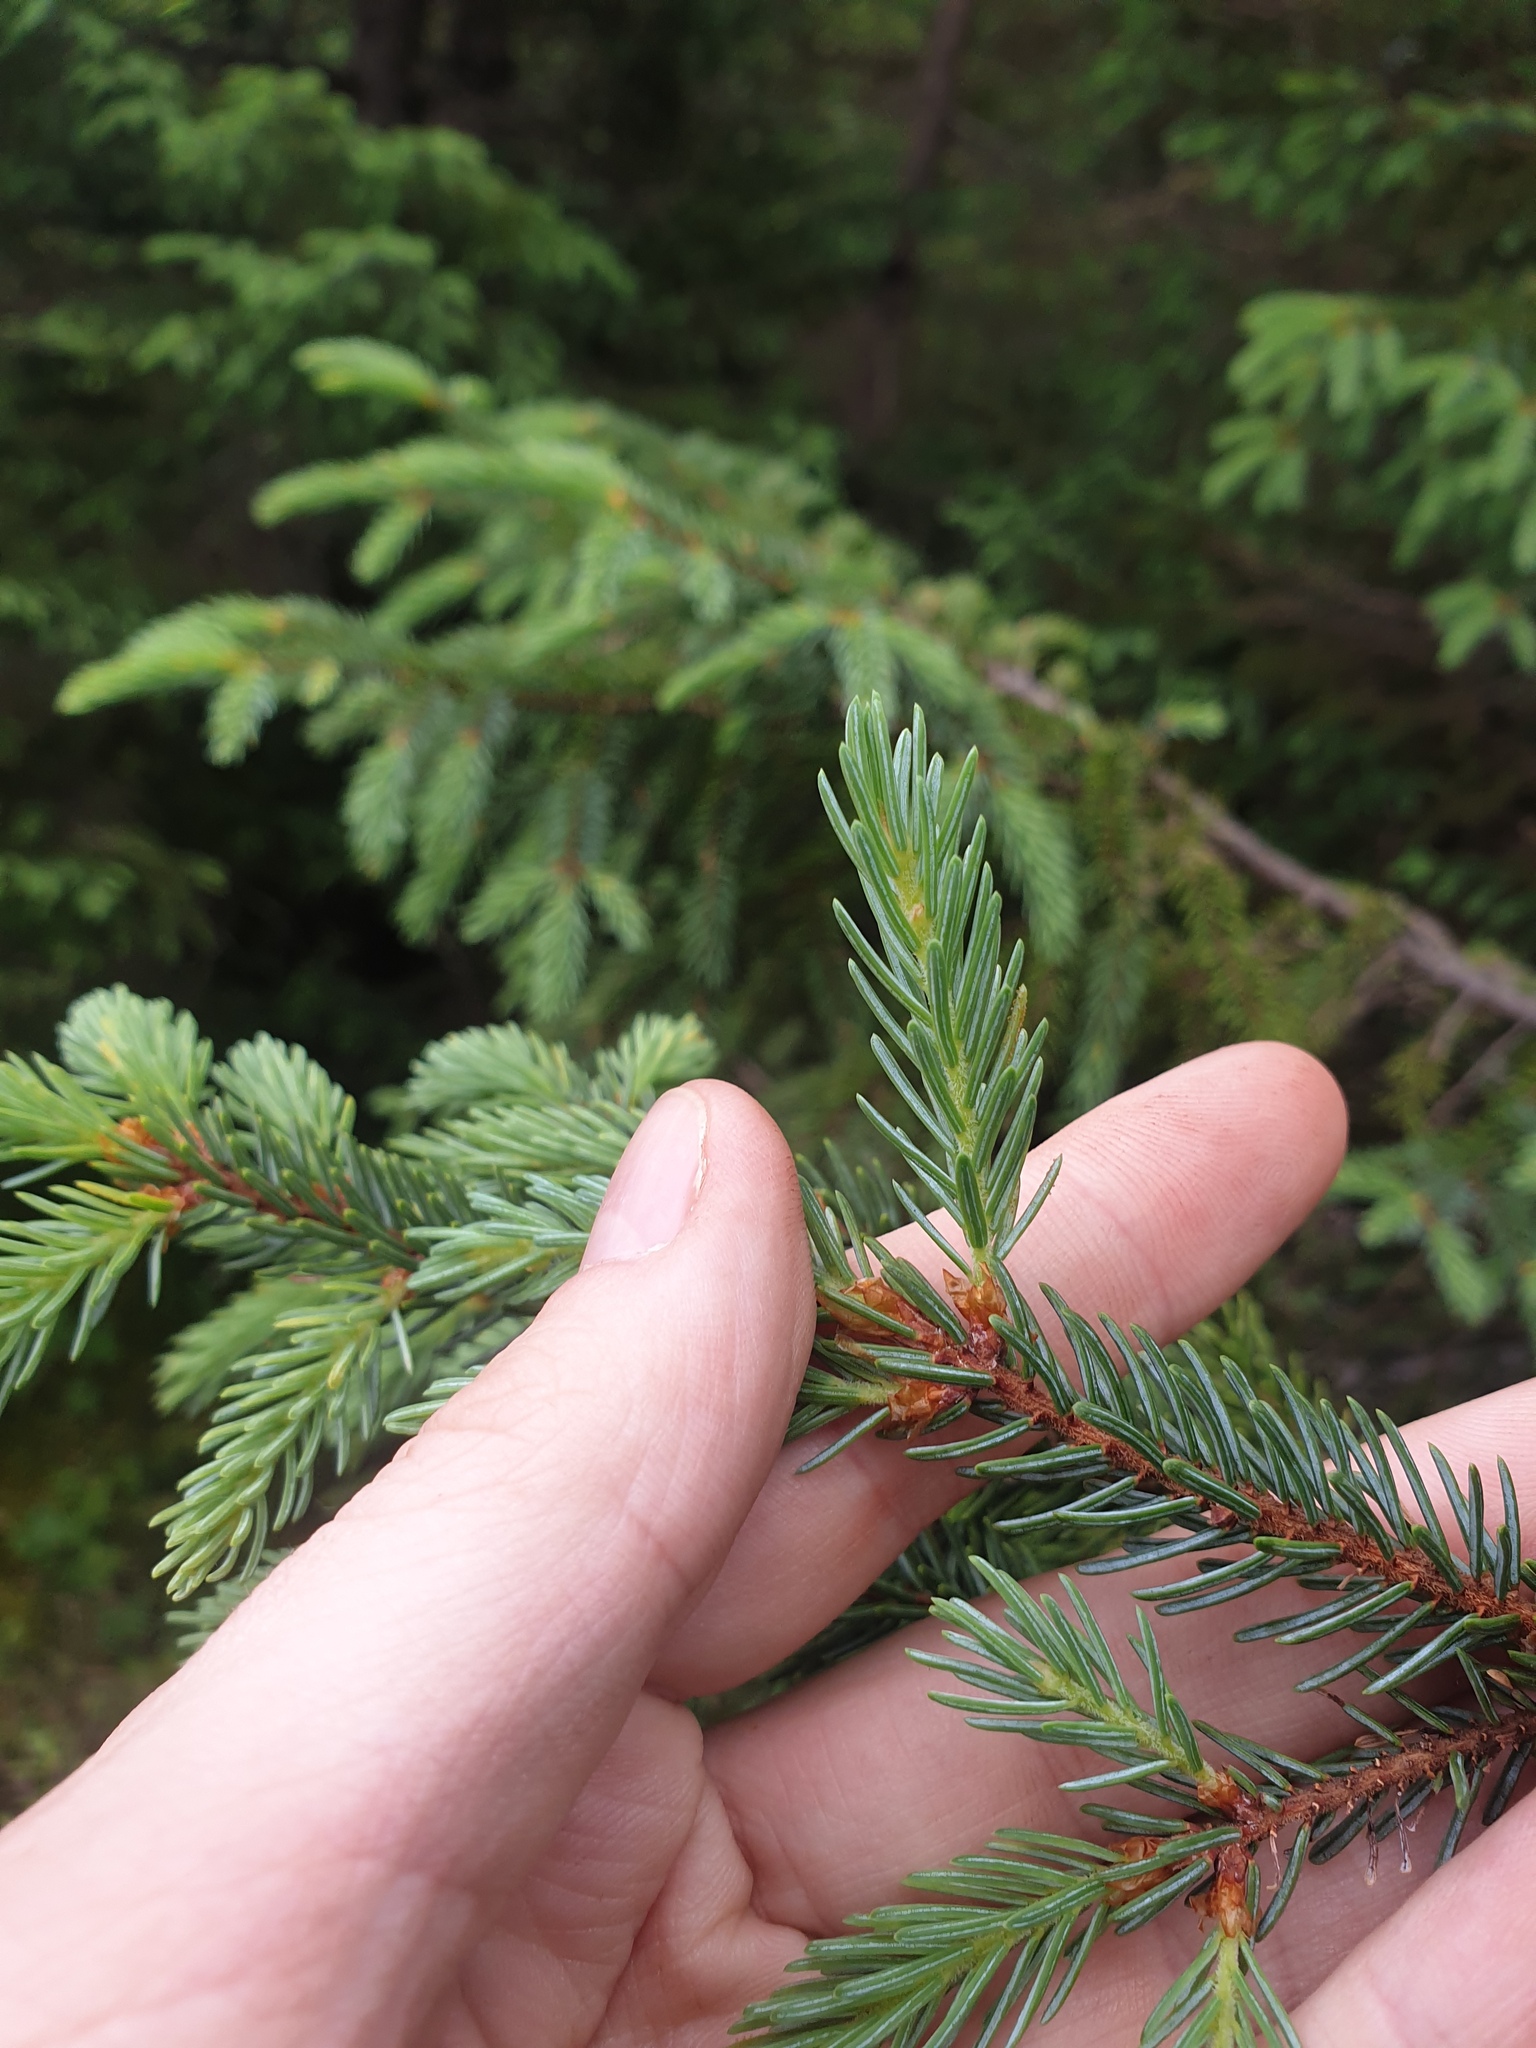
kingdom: Plantae
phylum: Tracheophyta
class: Pinopsida
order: Pinales
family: Pinaceae
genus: Picea
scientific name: Picea mariana
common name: Black spruce
